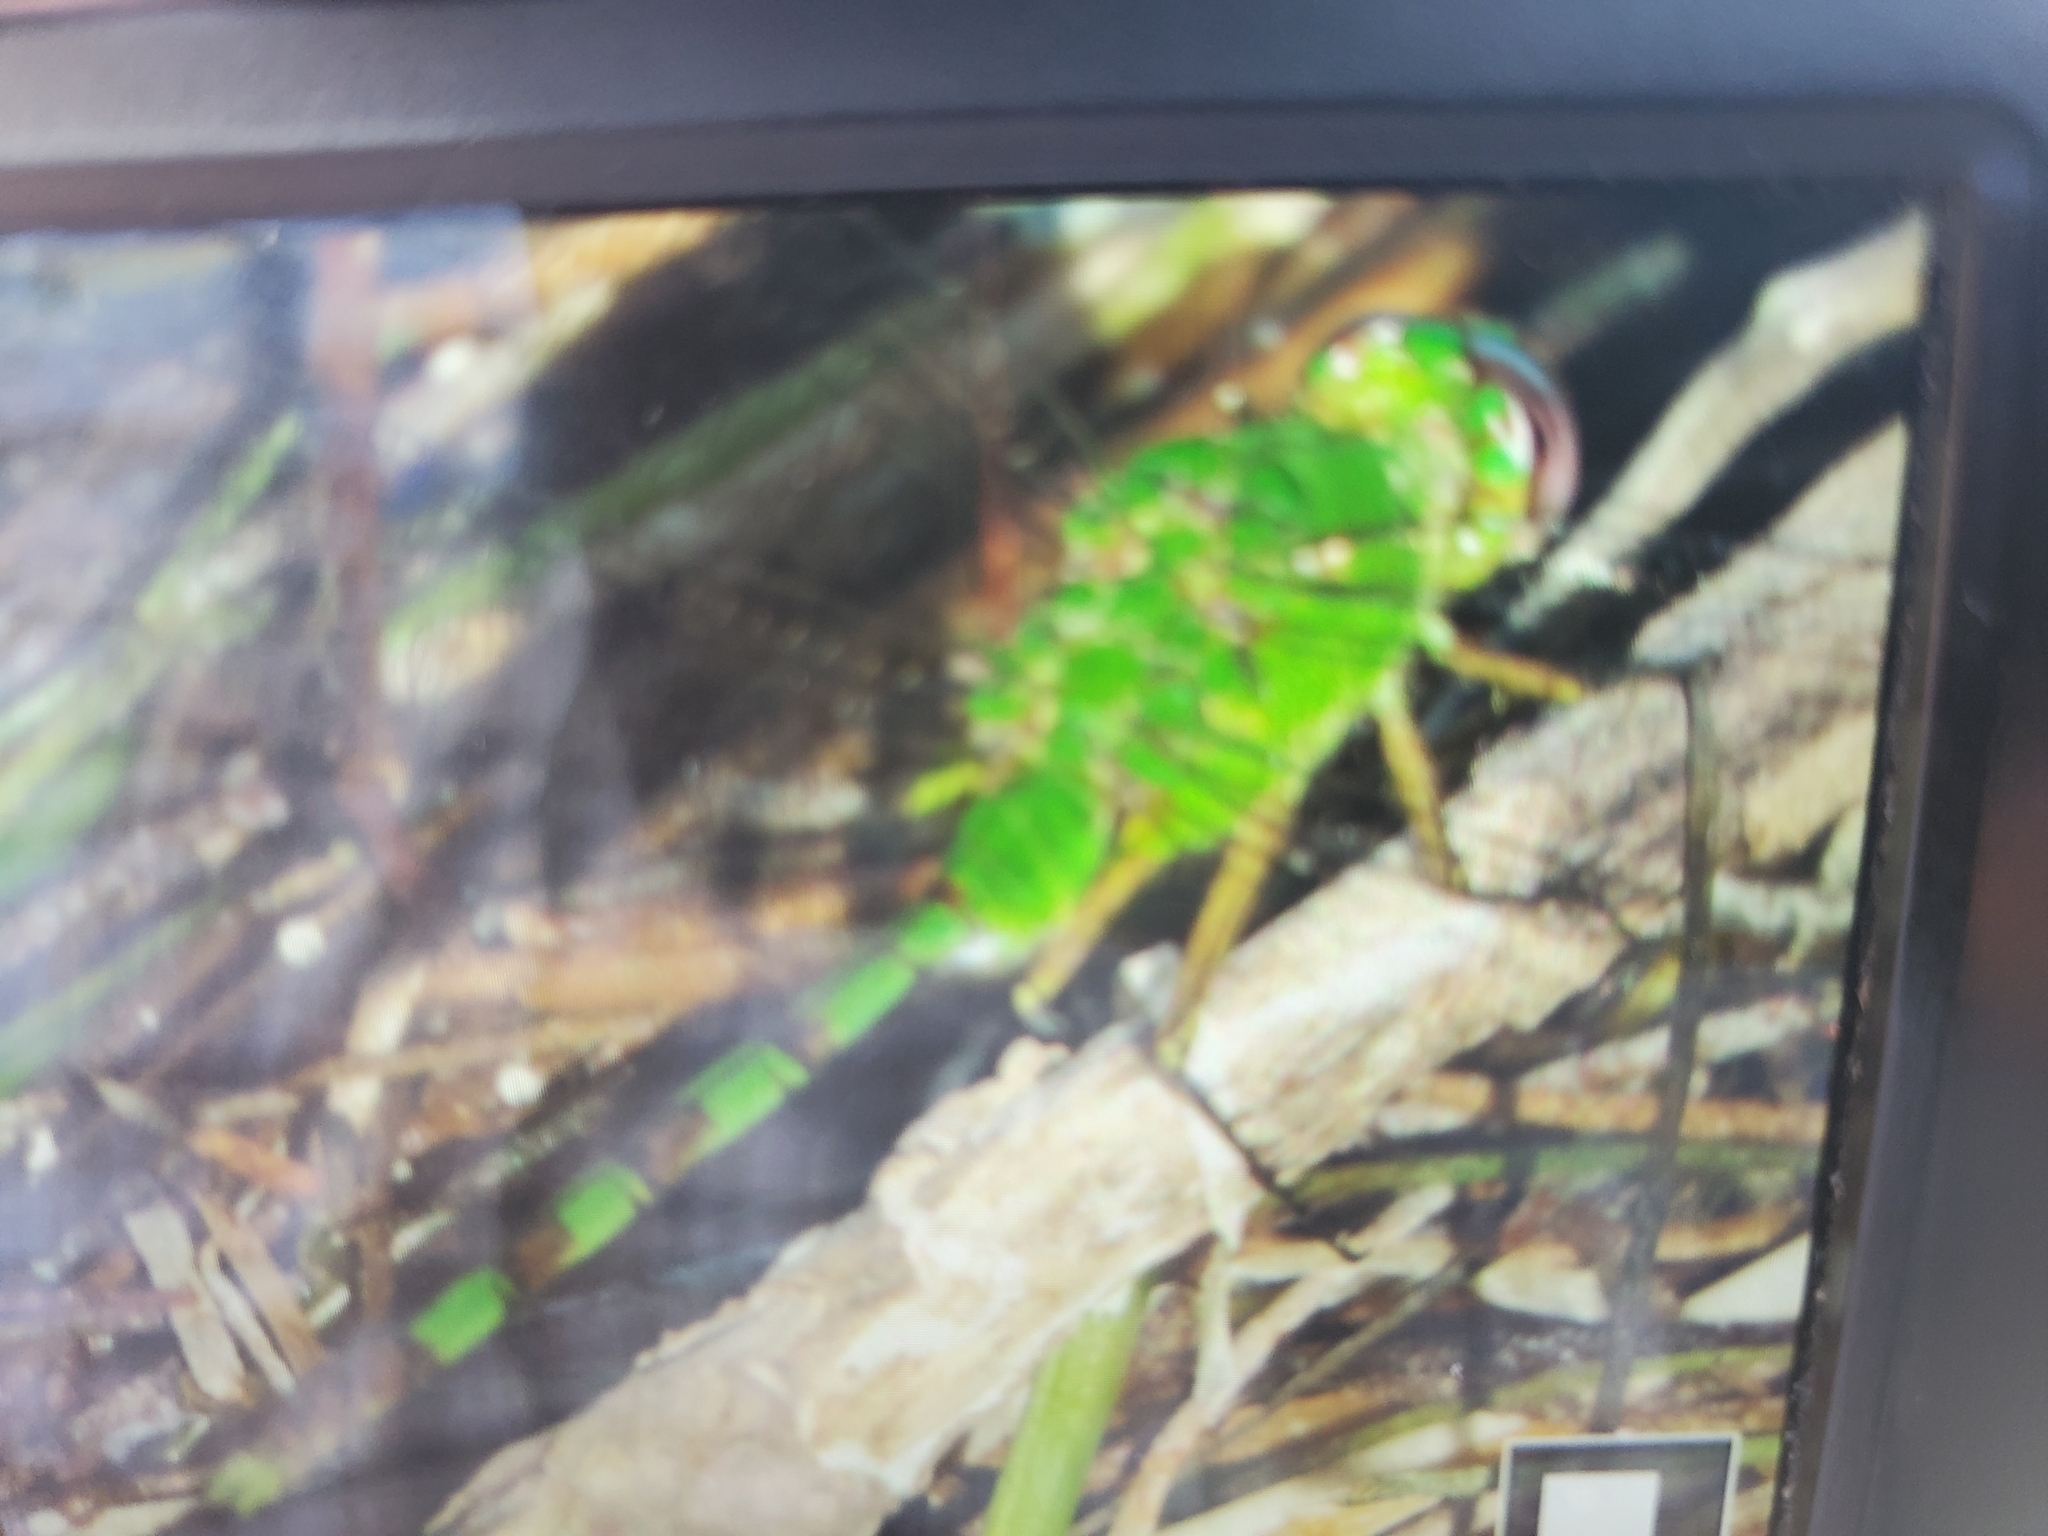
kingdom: Animalia
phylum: Arthropoda
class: Insecta
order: Odonata
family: Libellulidae
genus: Erythemis
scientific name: Erythemis vesiculosa
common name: Great pondhawk
